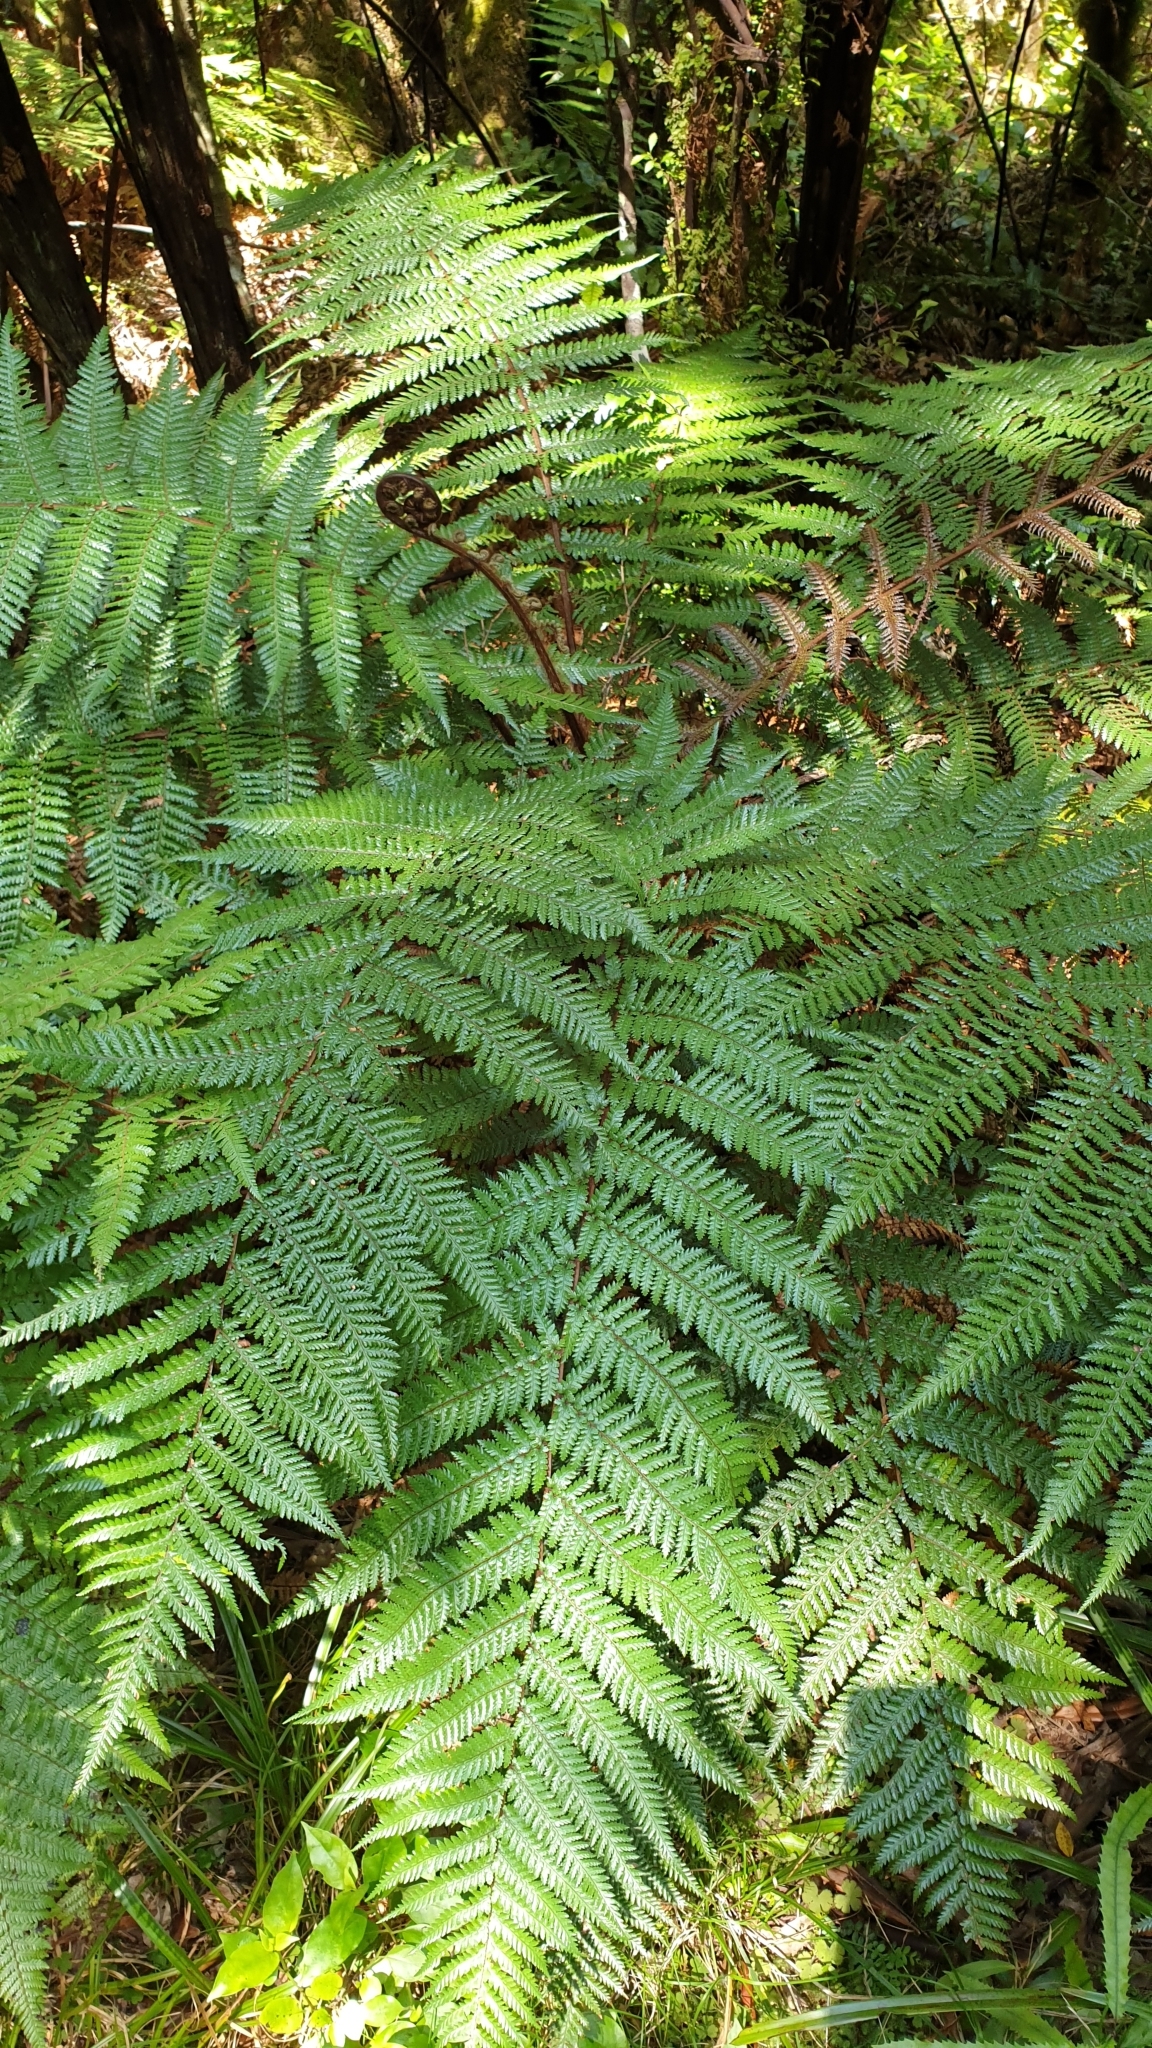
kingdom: Plantae
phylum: Tracheophyta
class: Polypodiopsida
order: Cyatheales
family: Dicksoniaceae
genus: Dicksonia
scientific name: Dicksonia squarrosa
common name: Hard treefern
